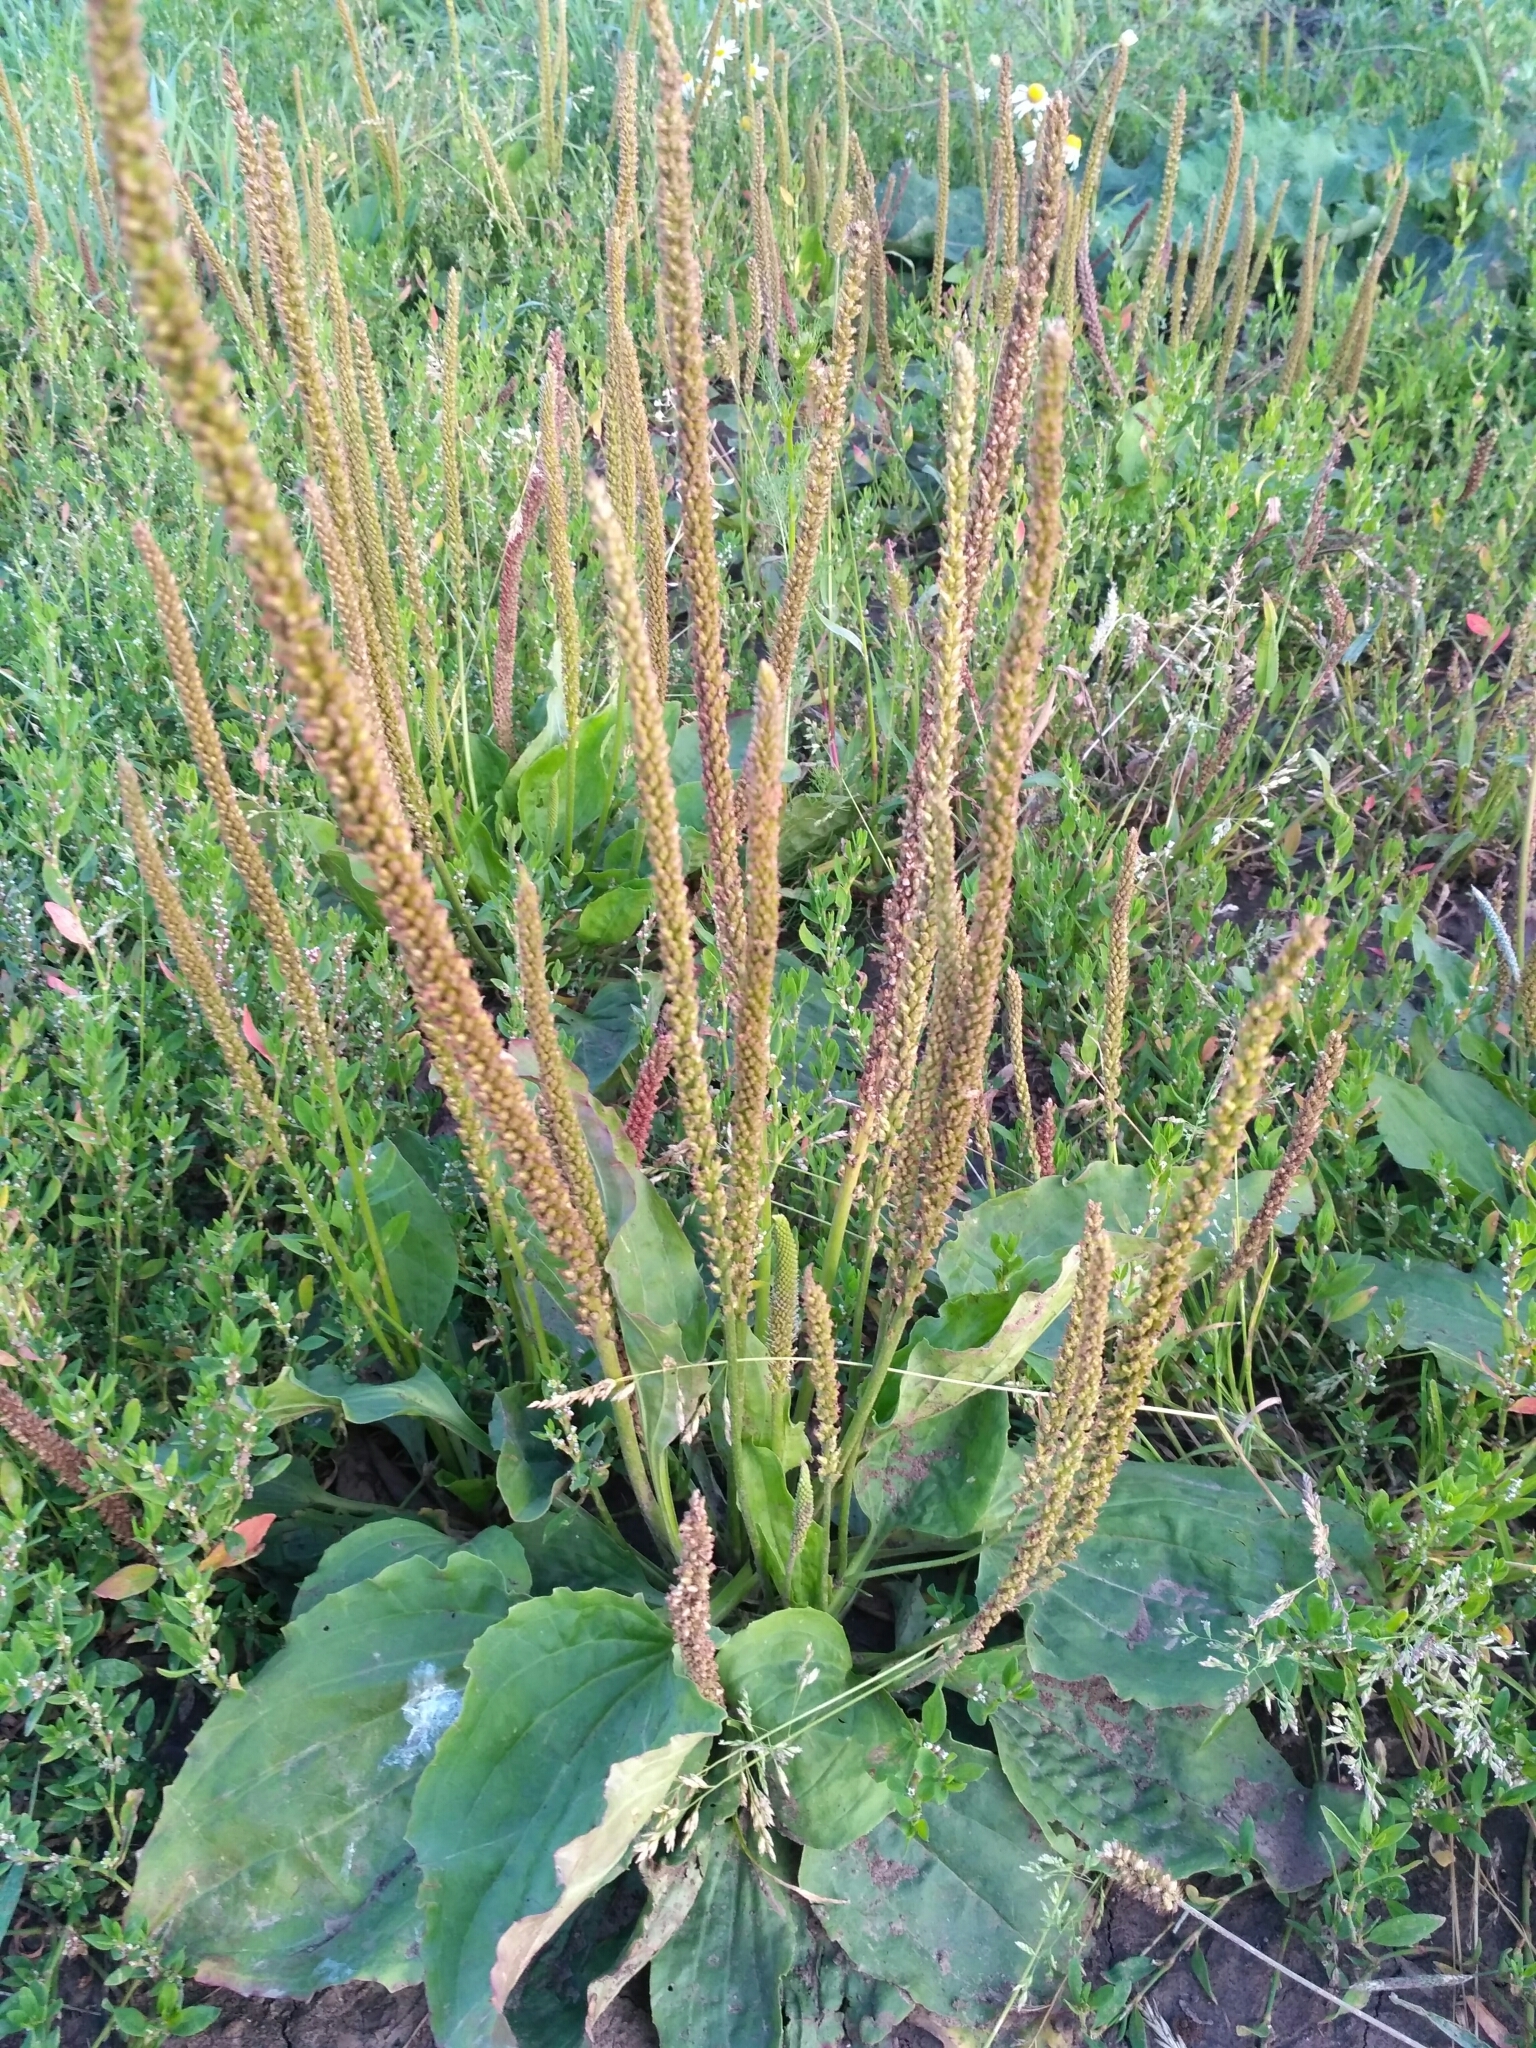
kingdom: Plantae
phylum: Tracheophyta
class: Magnoliopsida
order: Lamiales
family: Plantaginaceae
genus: Plantago
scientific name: Plantago major
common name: Common plantain
